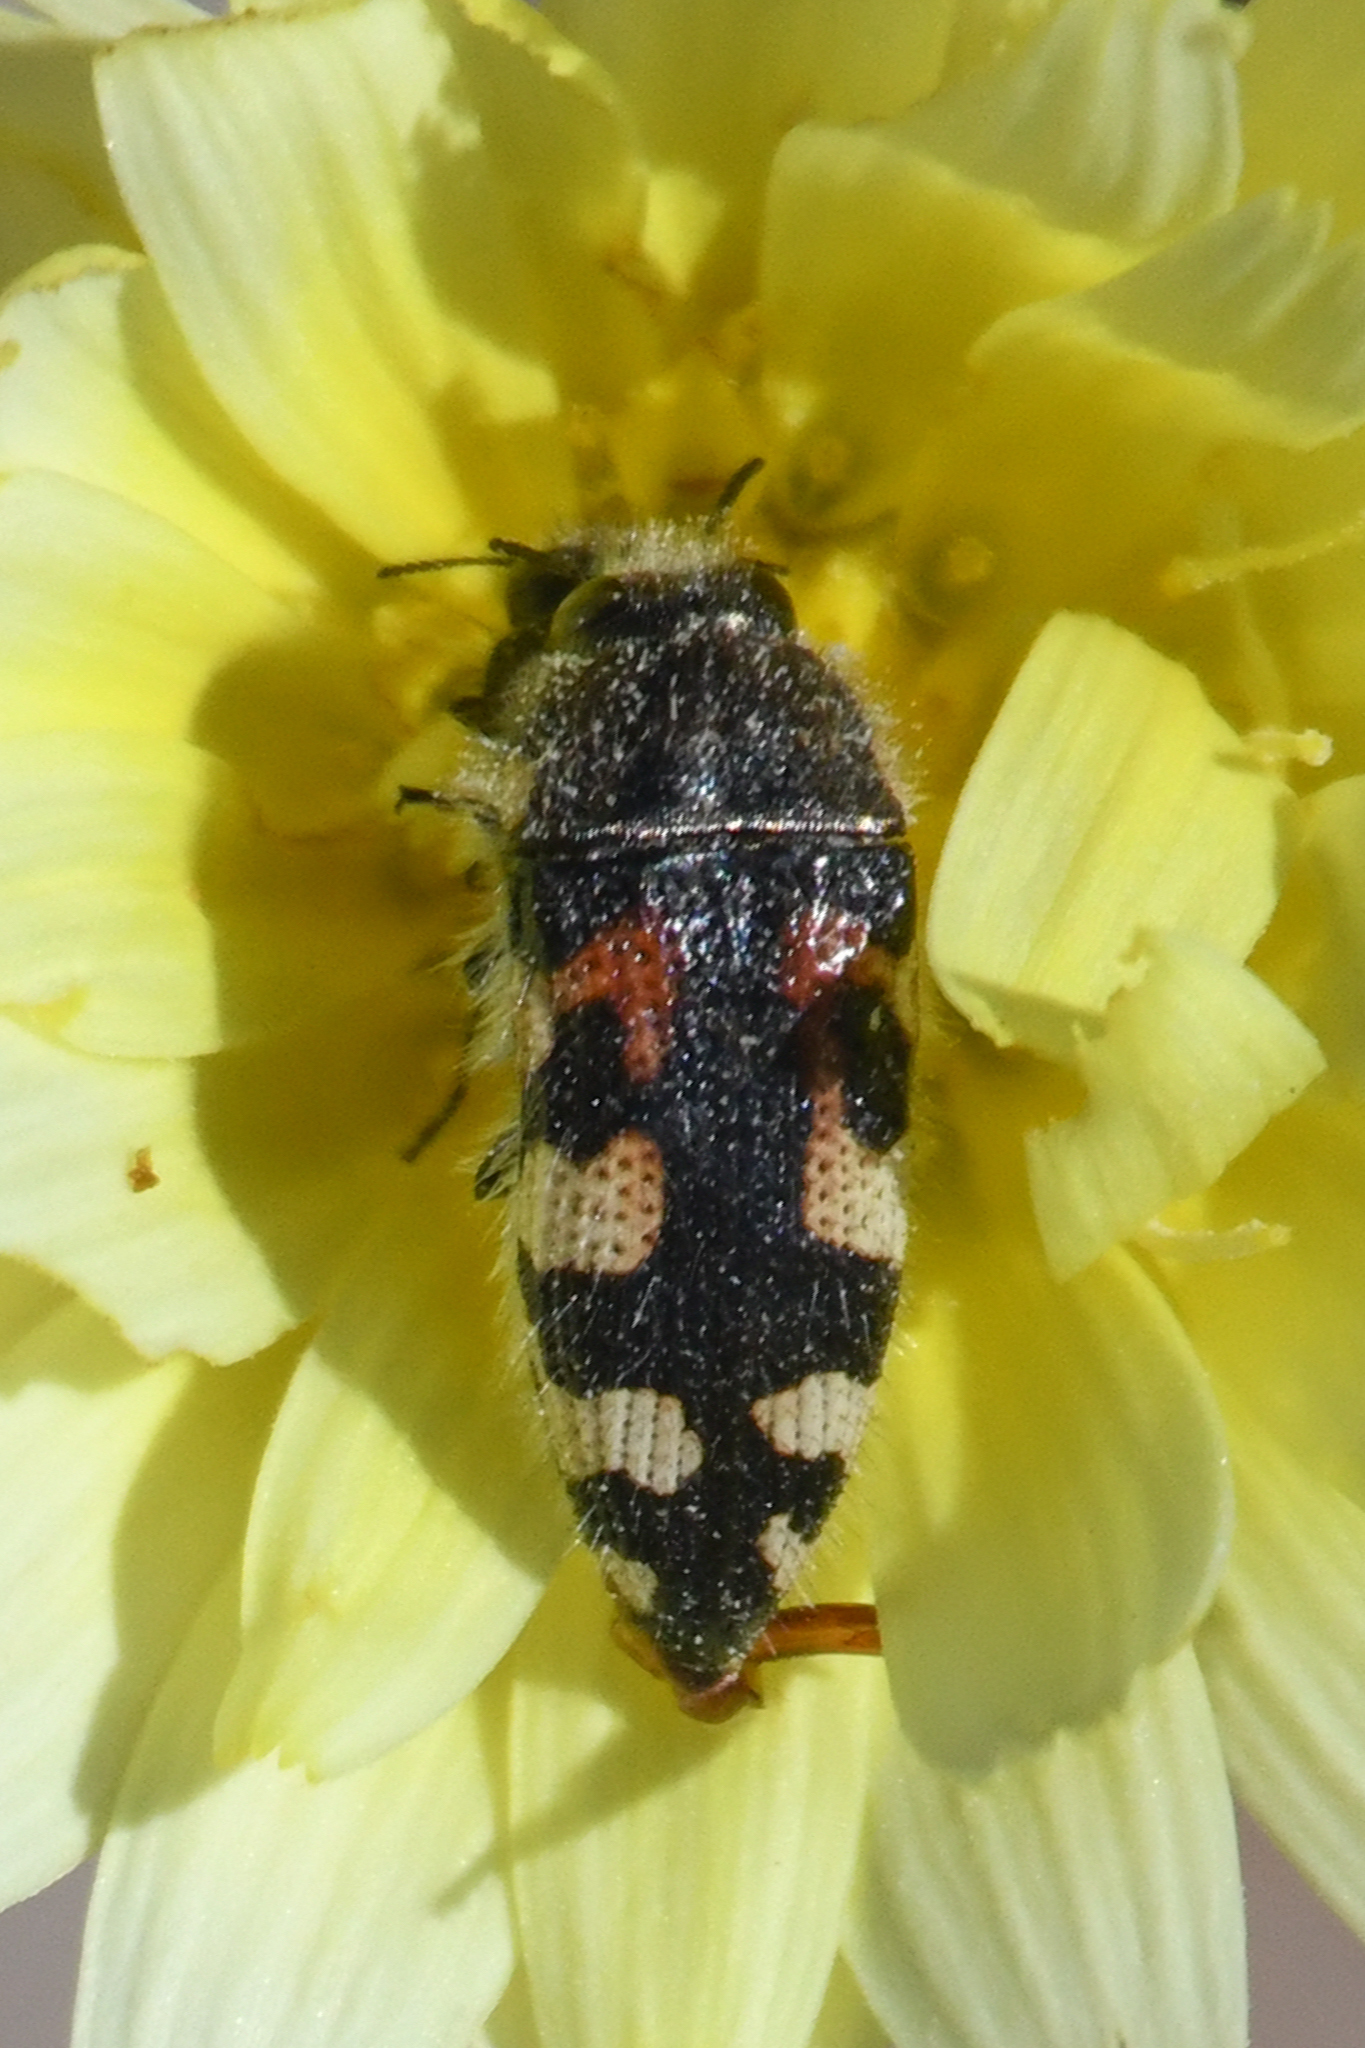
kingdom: Animalia
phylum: Arthropoda
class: Insecta
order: Coleoptera
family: Buprestidae
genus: Acmaeodera
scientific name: Acmaeodera tuta
